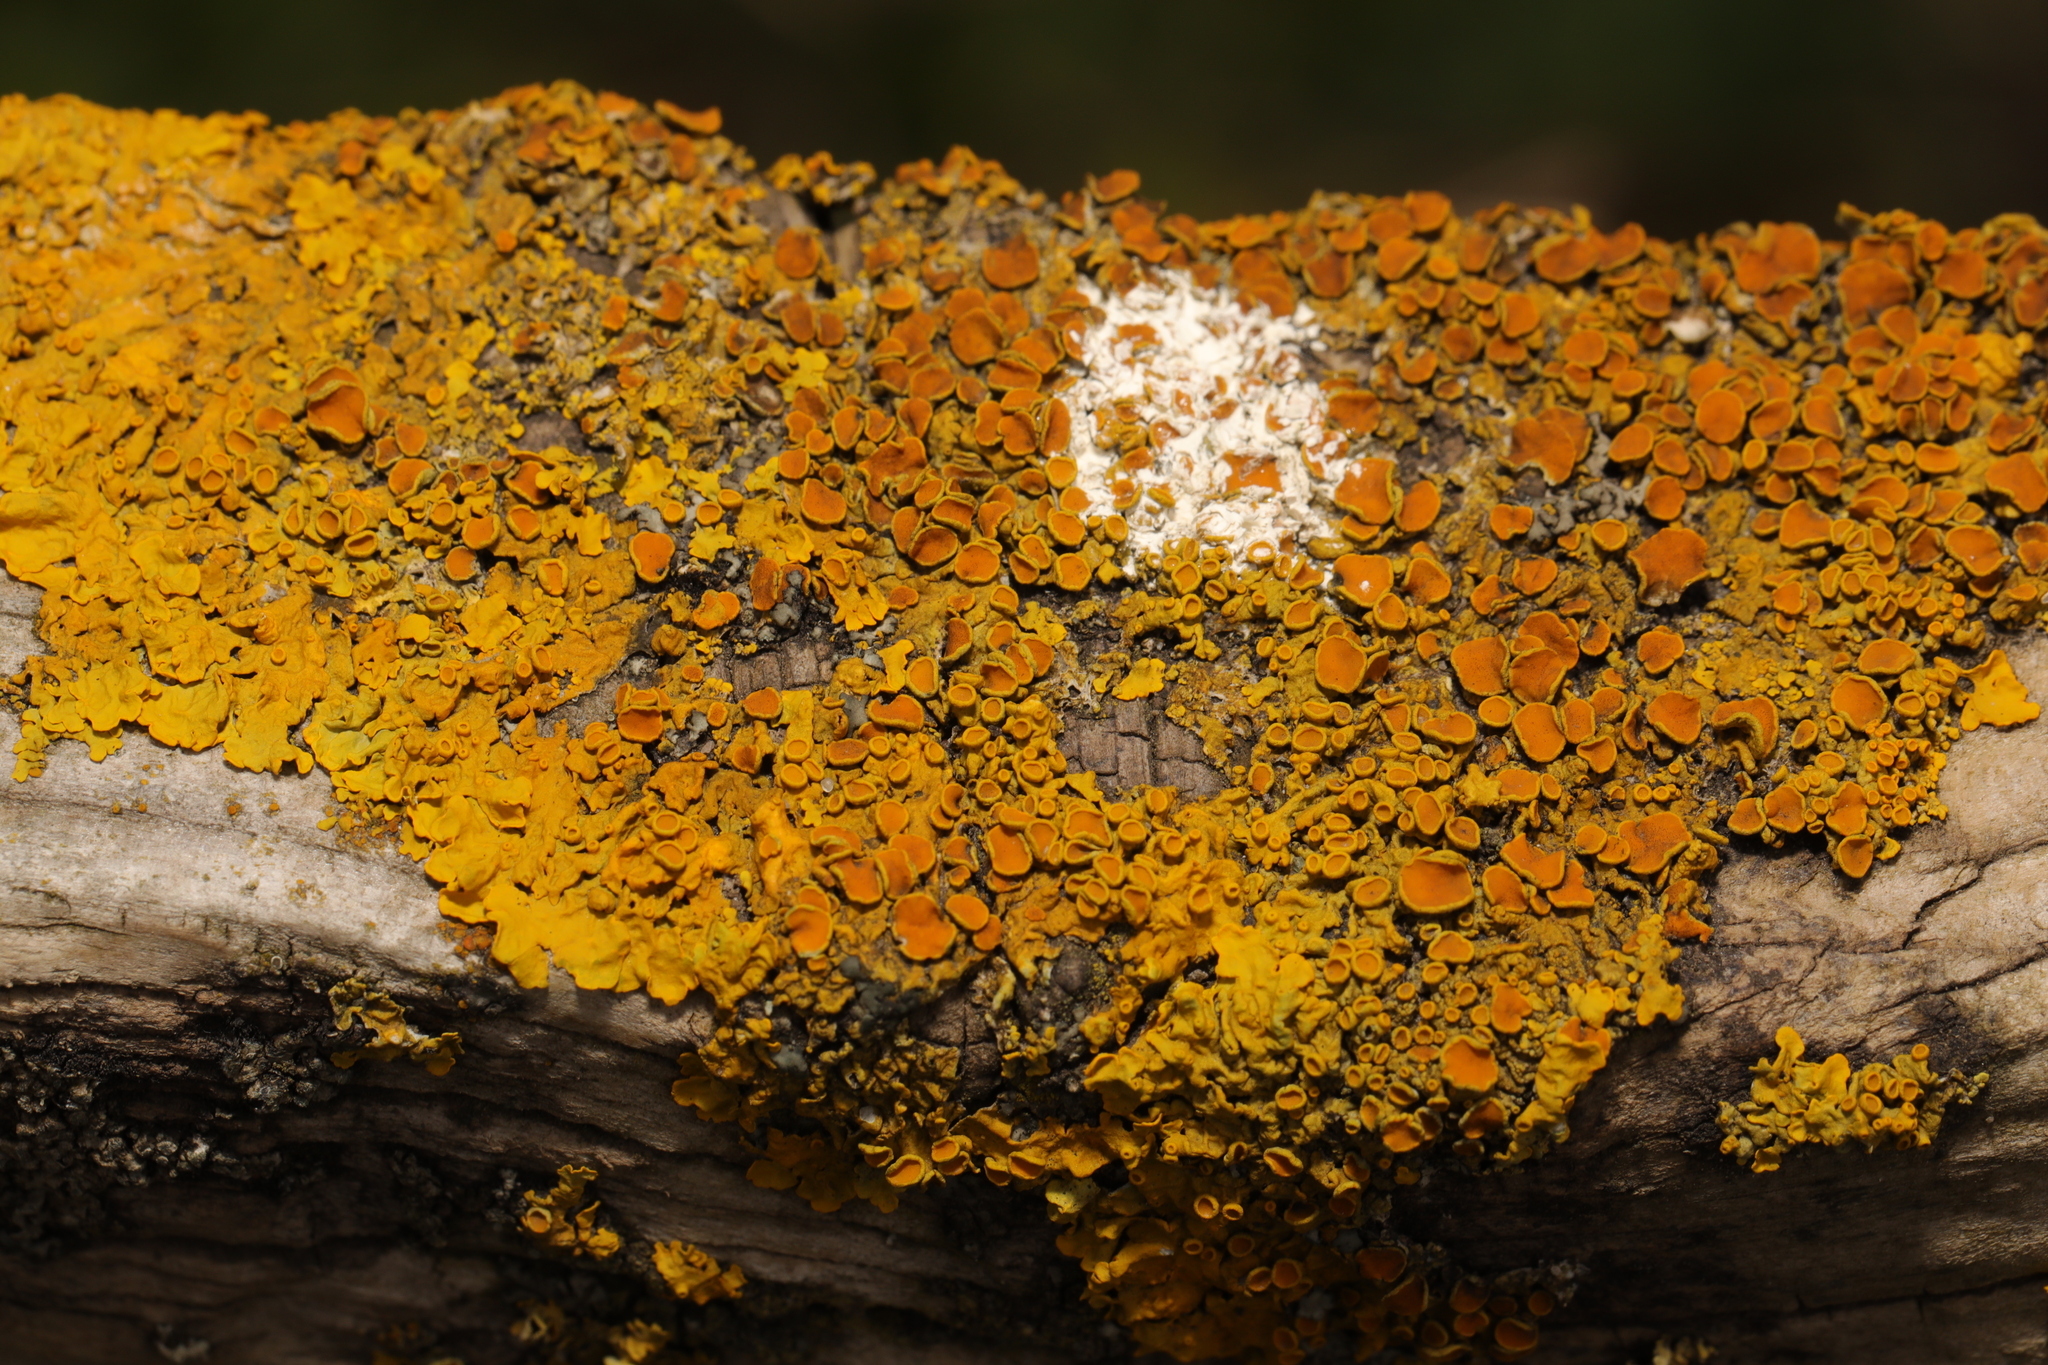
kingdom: Fungi
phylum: Ascomycota
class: Lecanoromycetes
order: Teloschistales
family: Teloschistaceae
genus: Xanthoria
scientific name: Xanthoria parietina
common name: Common orange lichen
